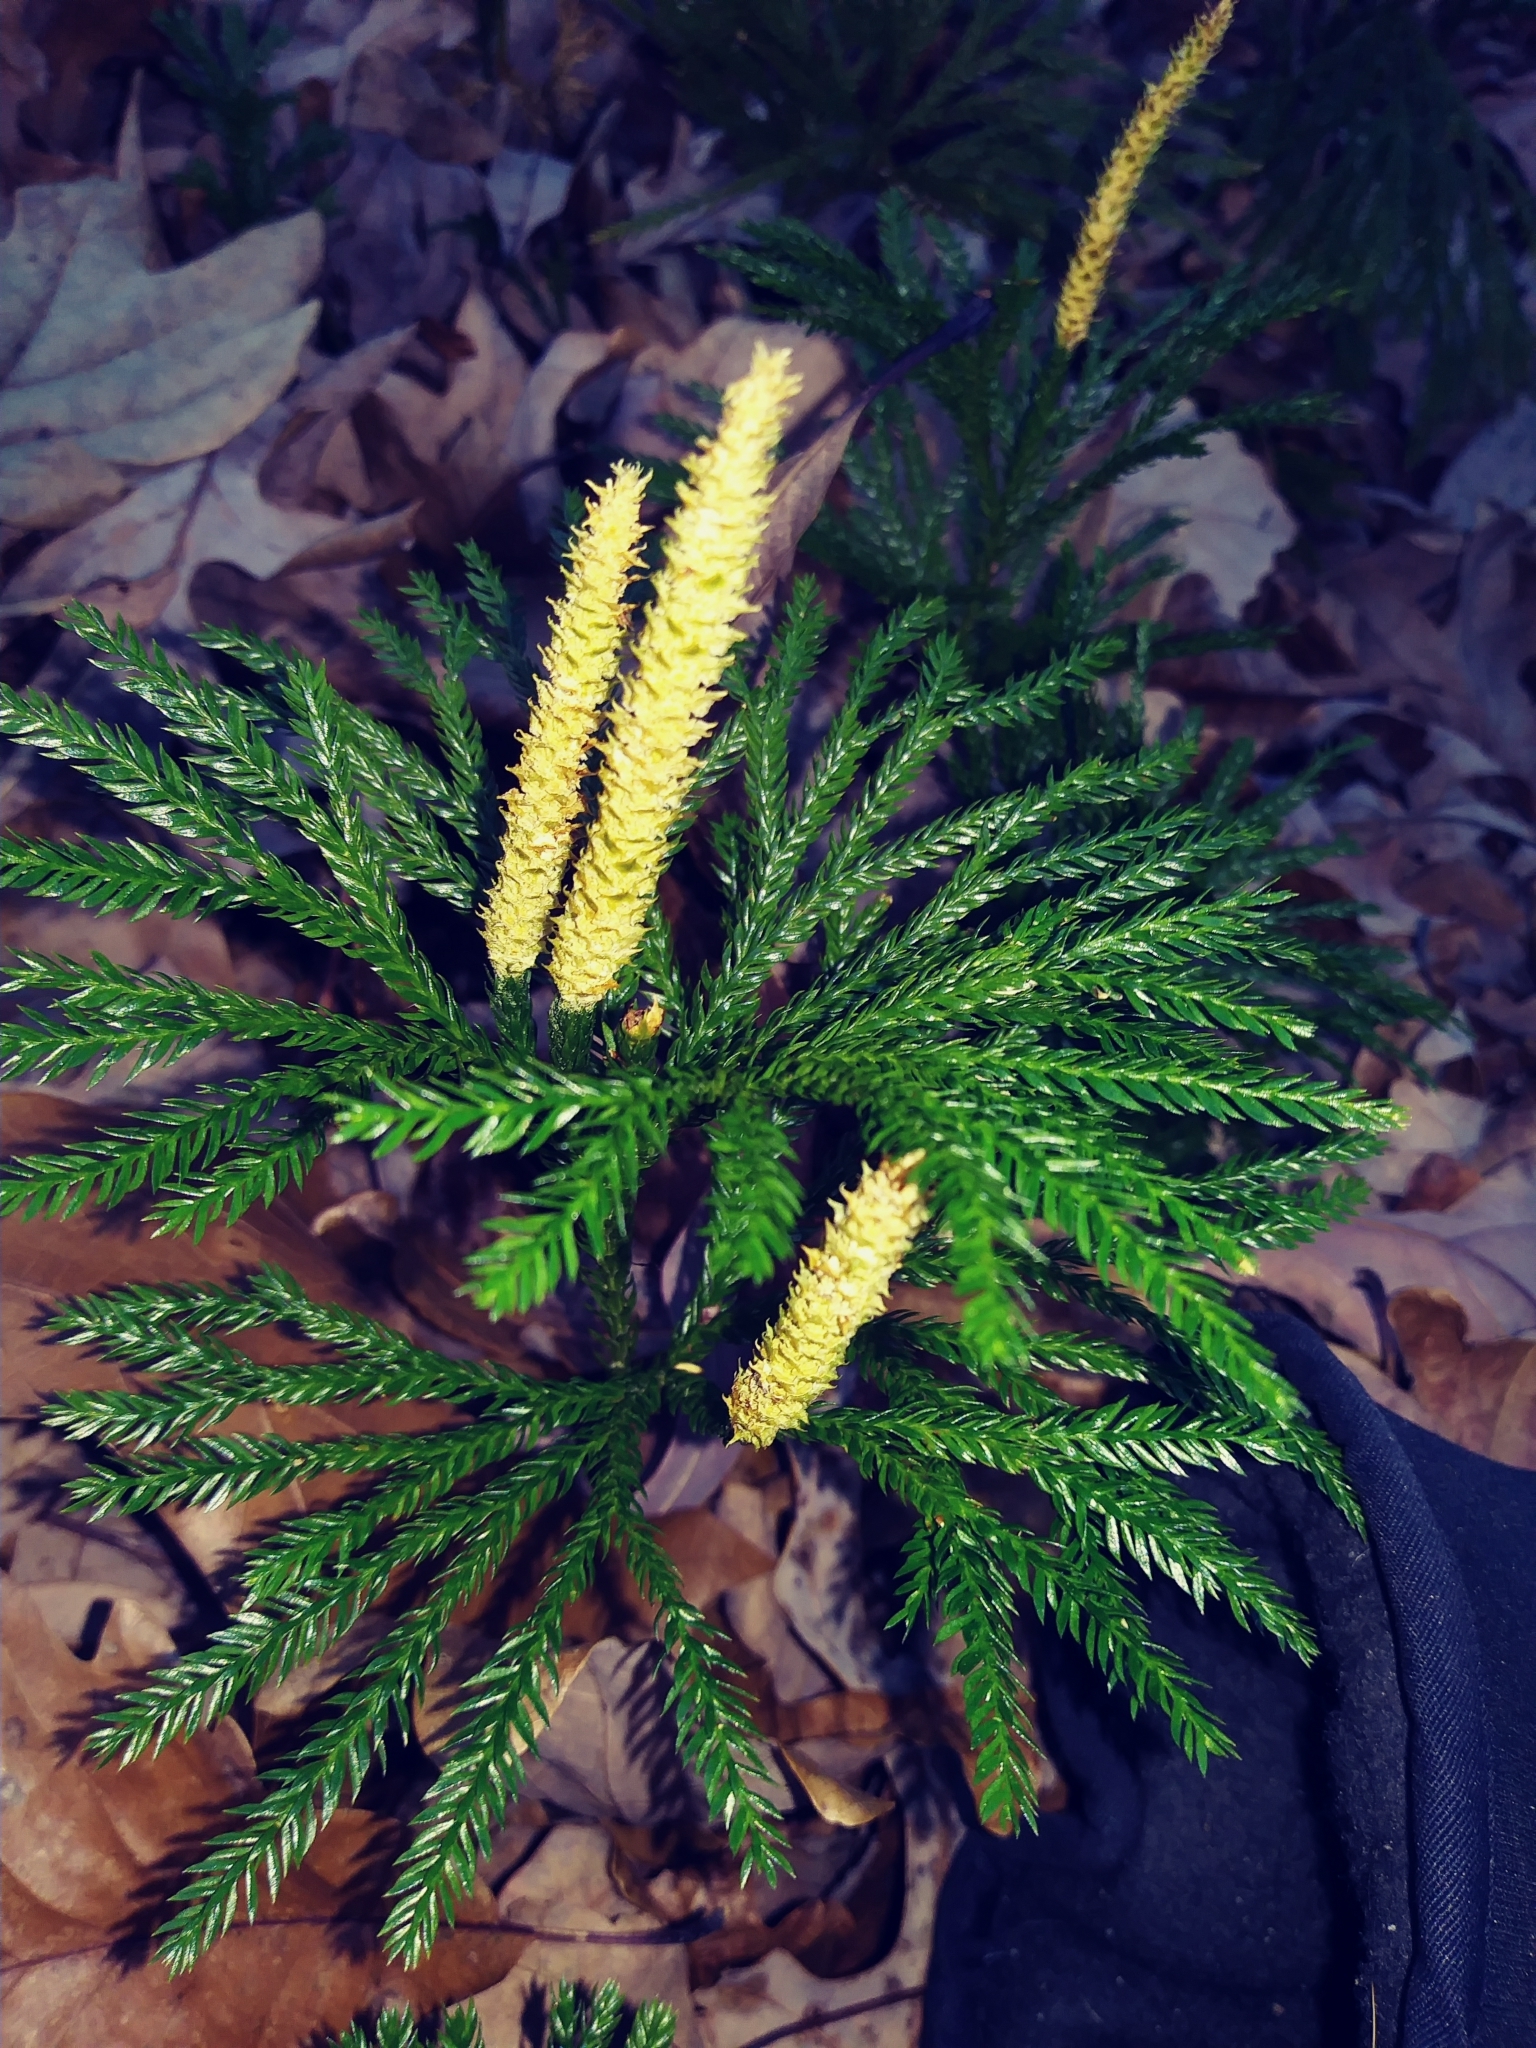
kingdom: Plantae
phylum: Tracheophyta
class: Lycopodiopsida
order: Lycopodiales
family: Lycopodiaceae
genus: Dendrolycopodium
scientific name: Dendrolycopodium obscurum
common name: Common ground-pine
